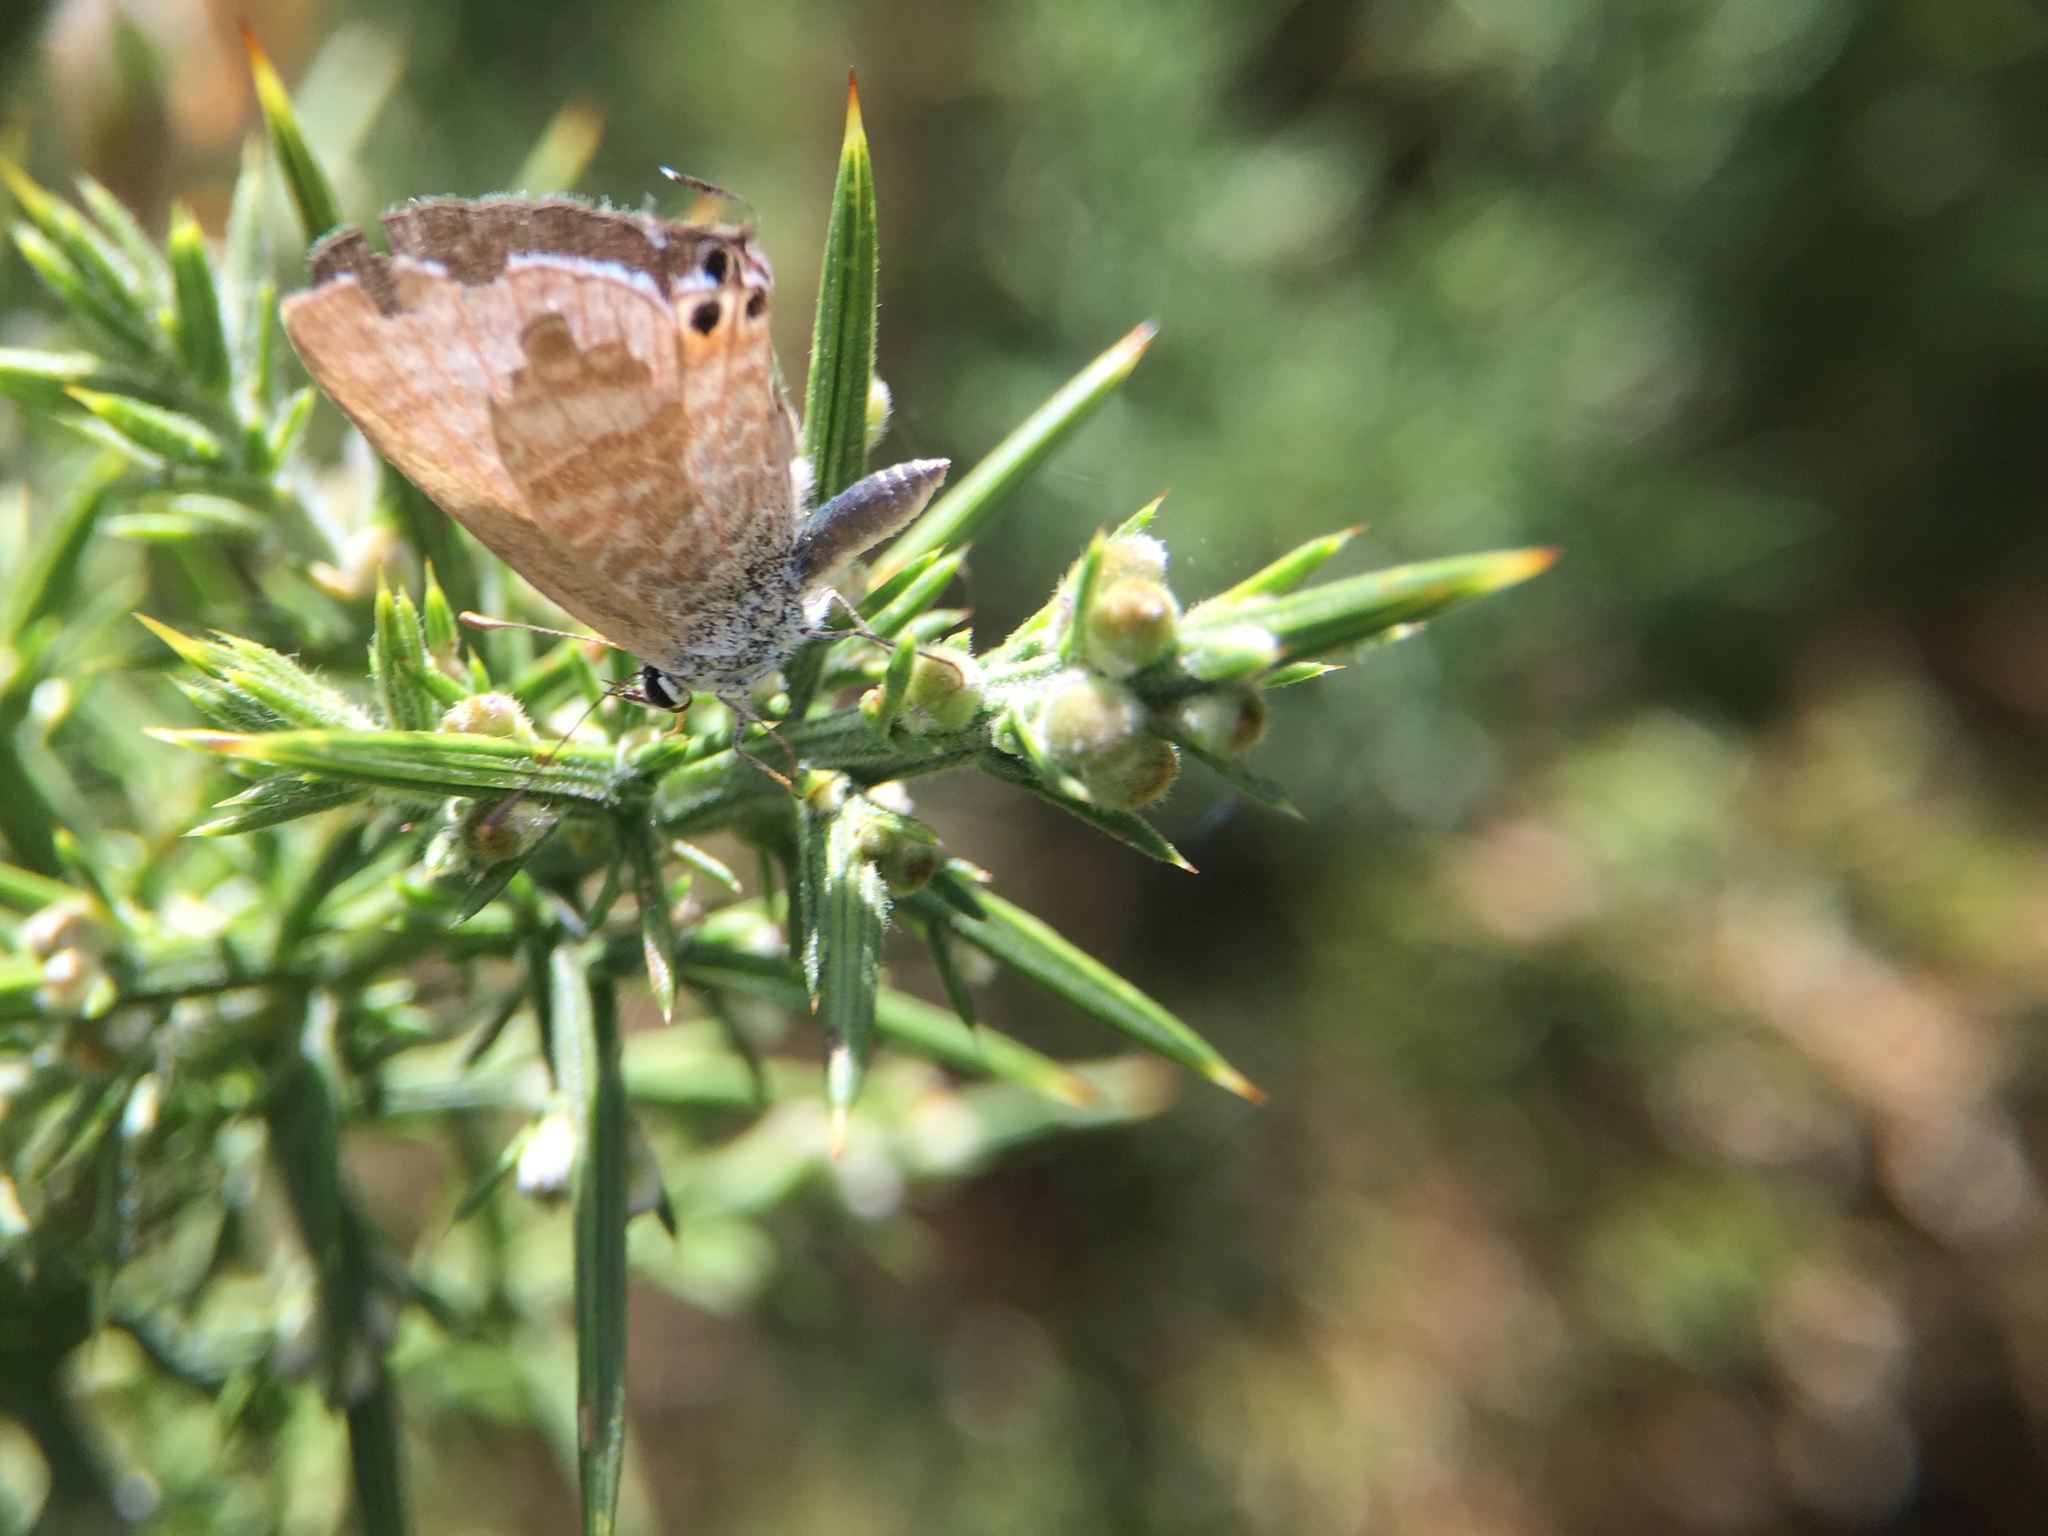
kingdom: Animalia
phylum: Arthropoda
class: Insecta
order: Lepidoptera
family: Lycaenidae
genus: Lampides
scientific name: Lampides boeticus
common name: Long-tailed blue
